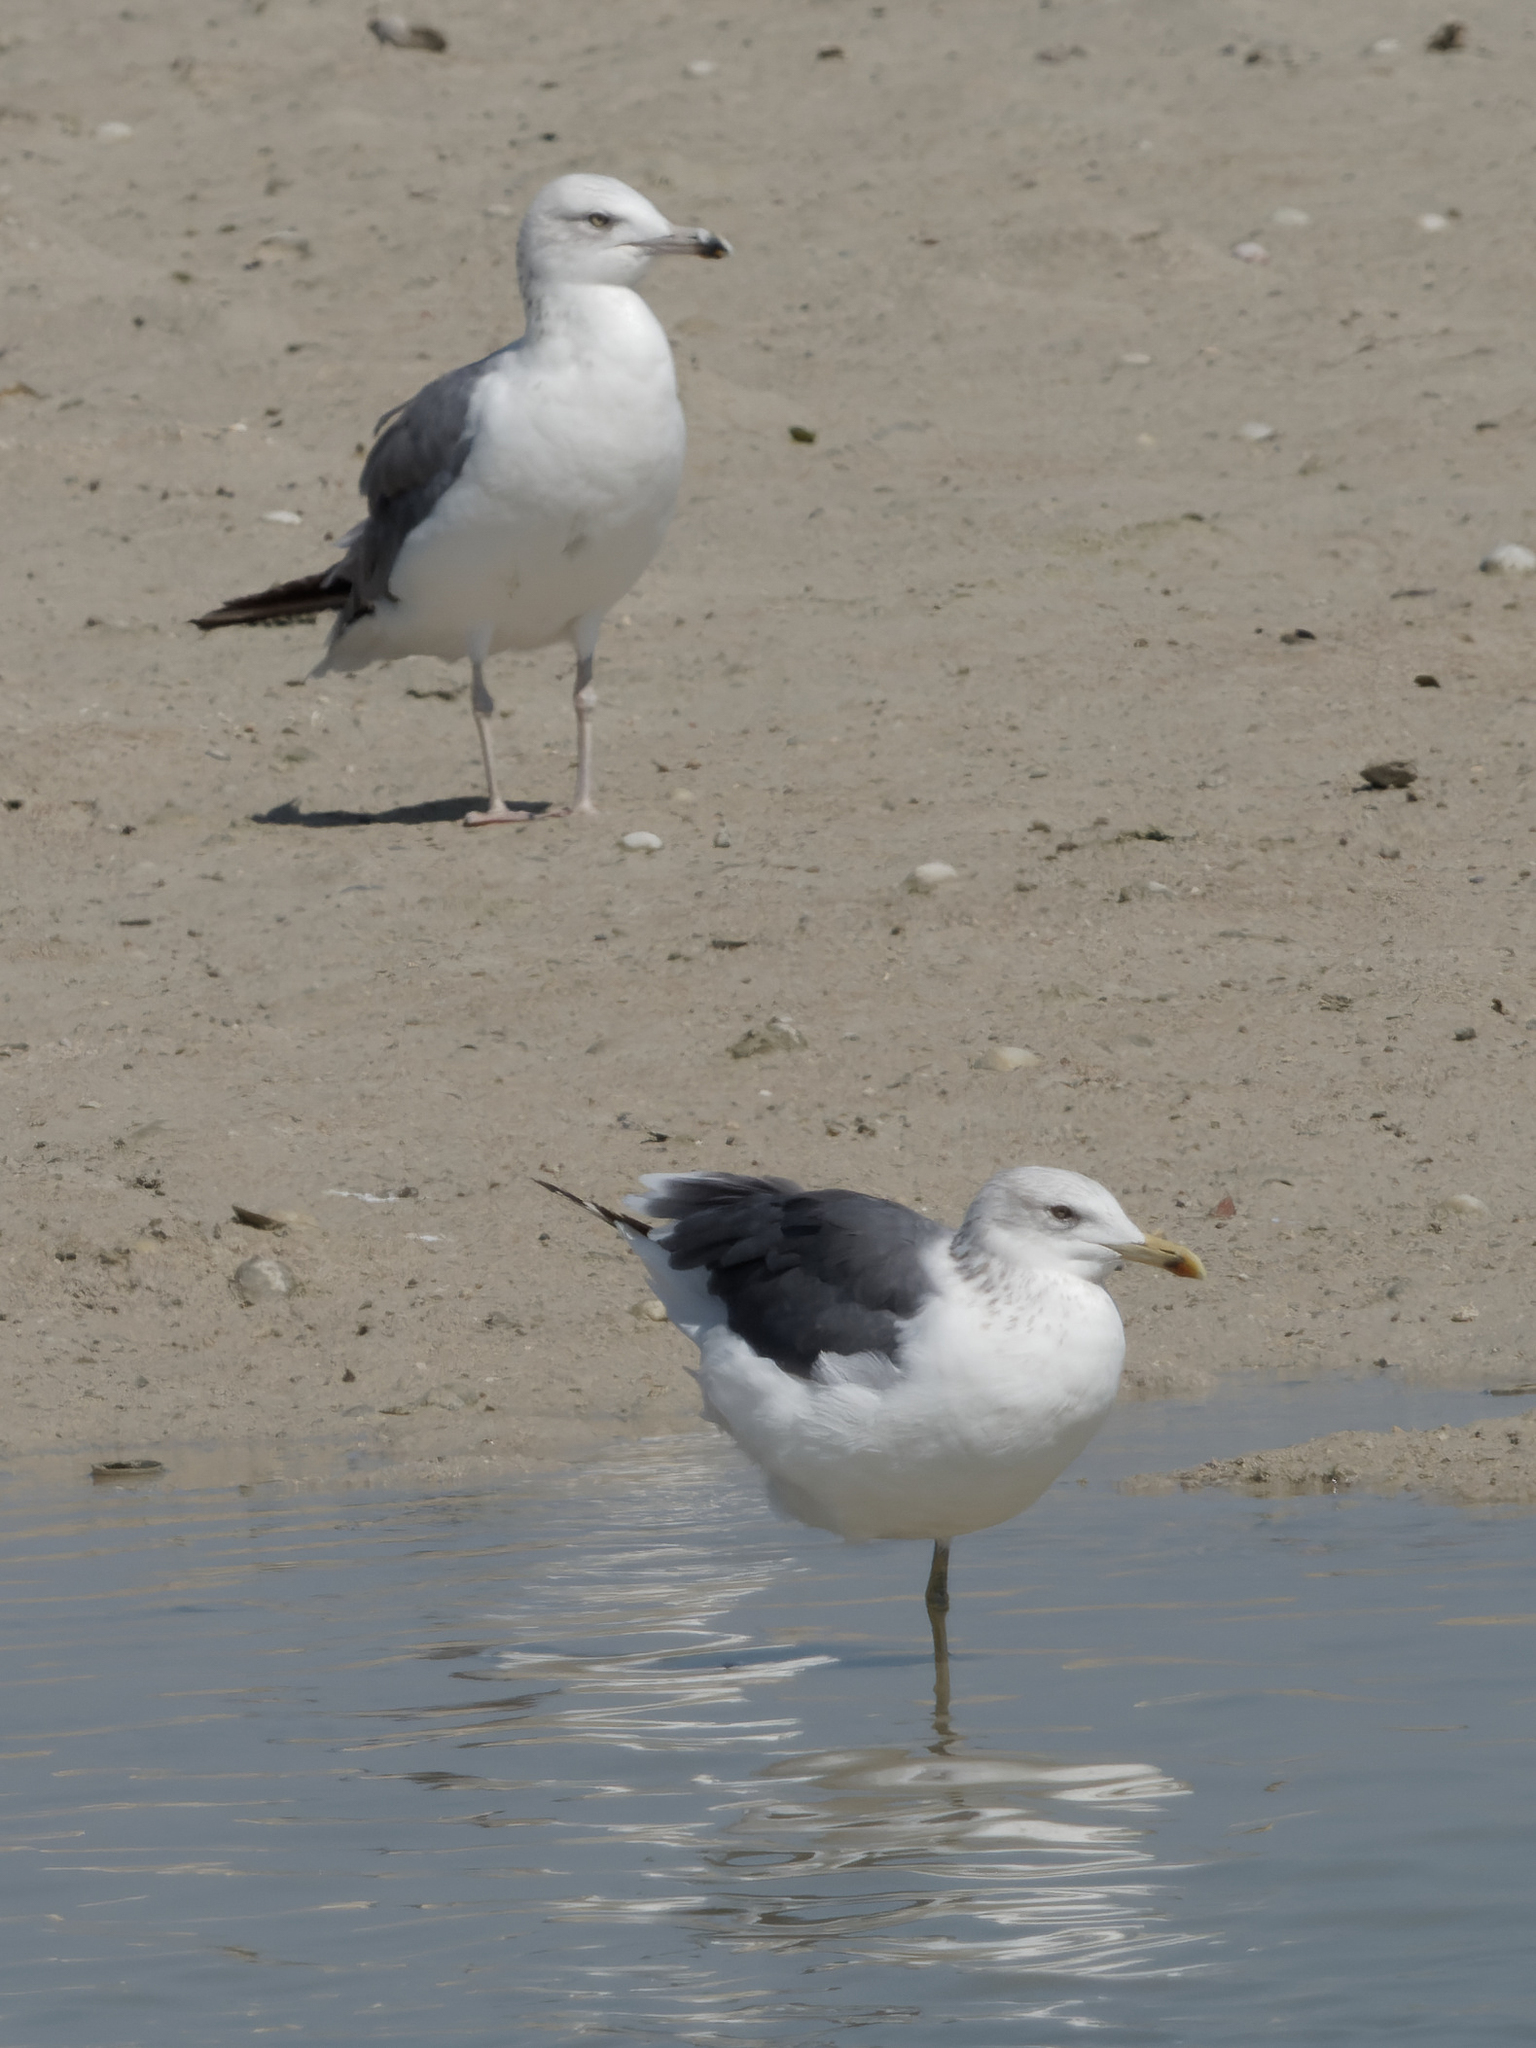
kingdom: Animalia
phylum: Chordata
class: Aves
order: Charadriiformes
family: Laridae
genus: Larus
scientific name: Larus fuscus
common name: Lesser black-backed gull
